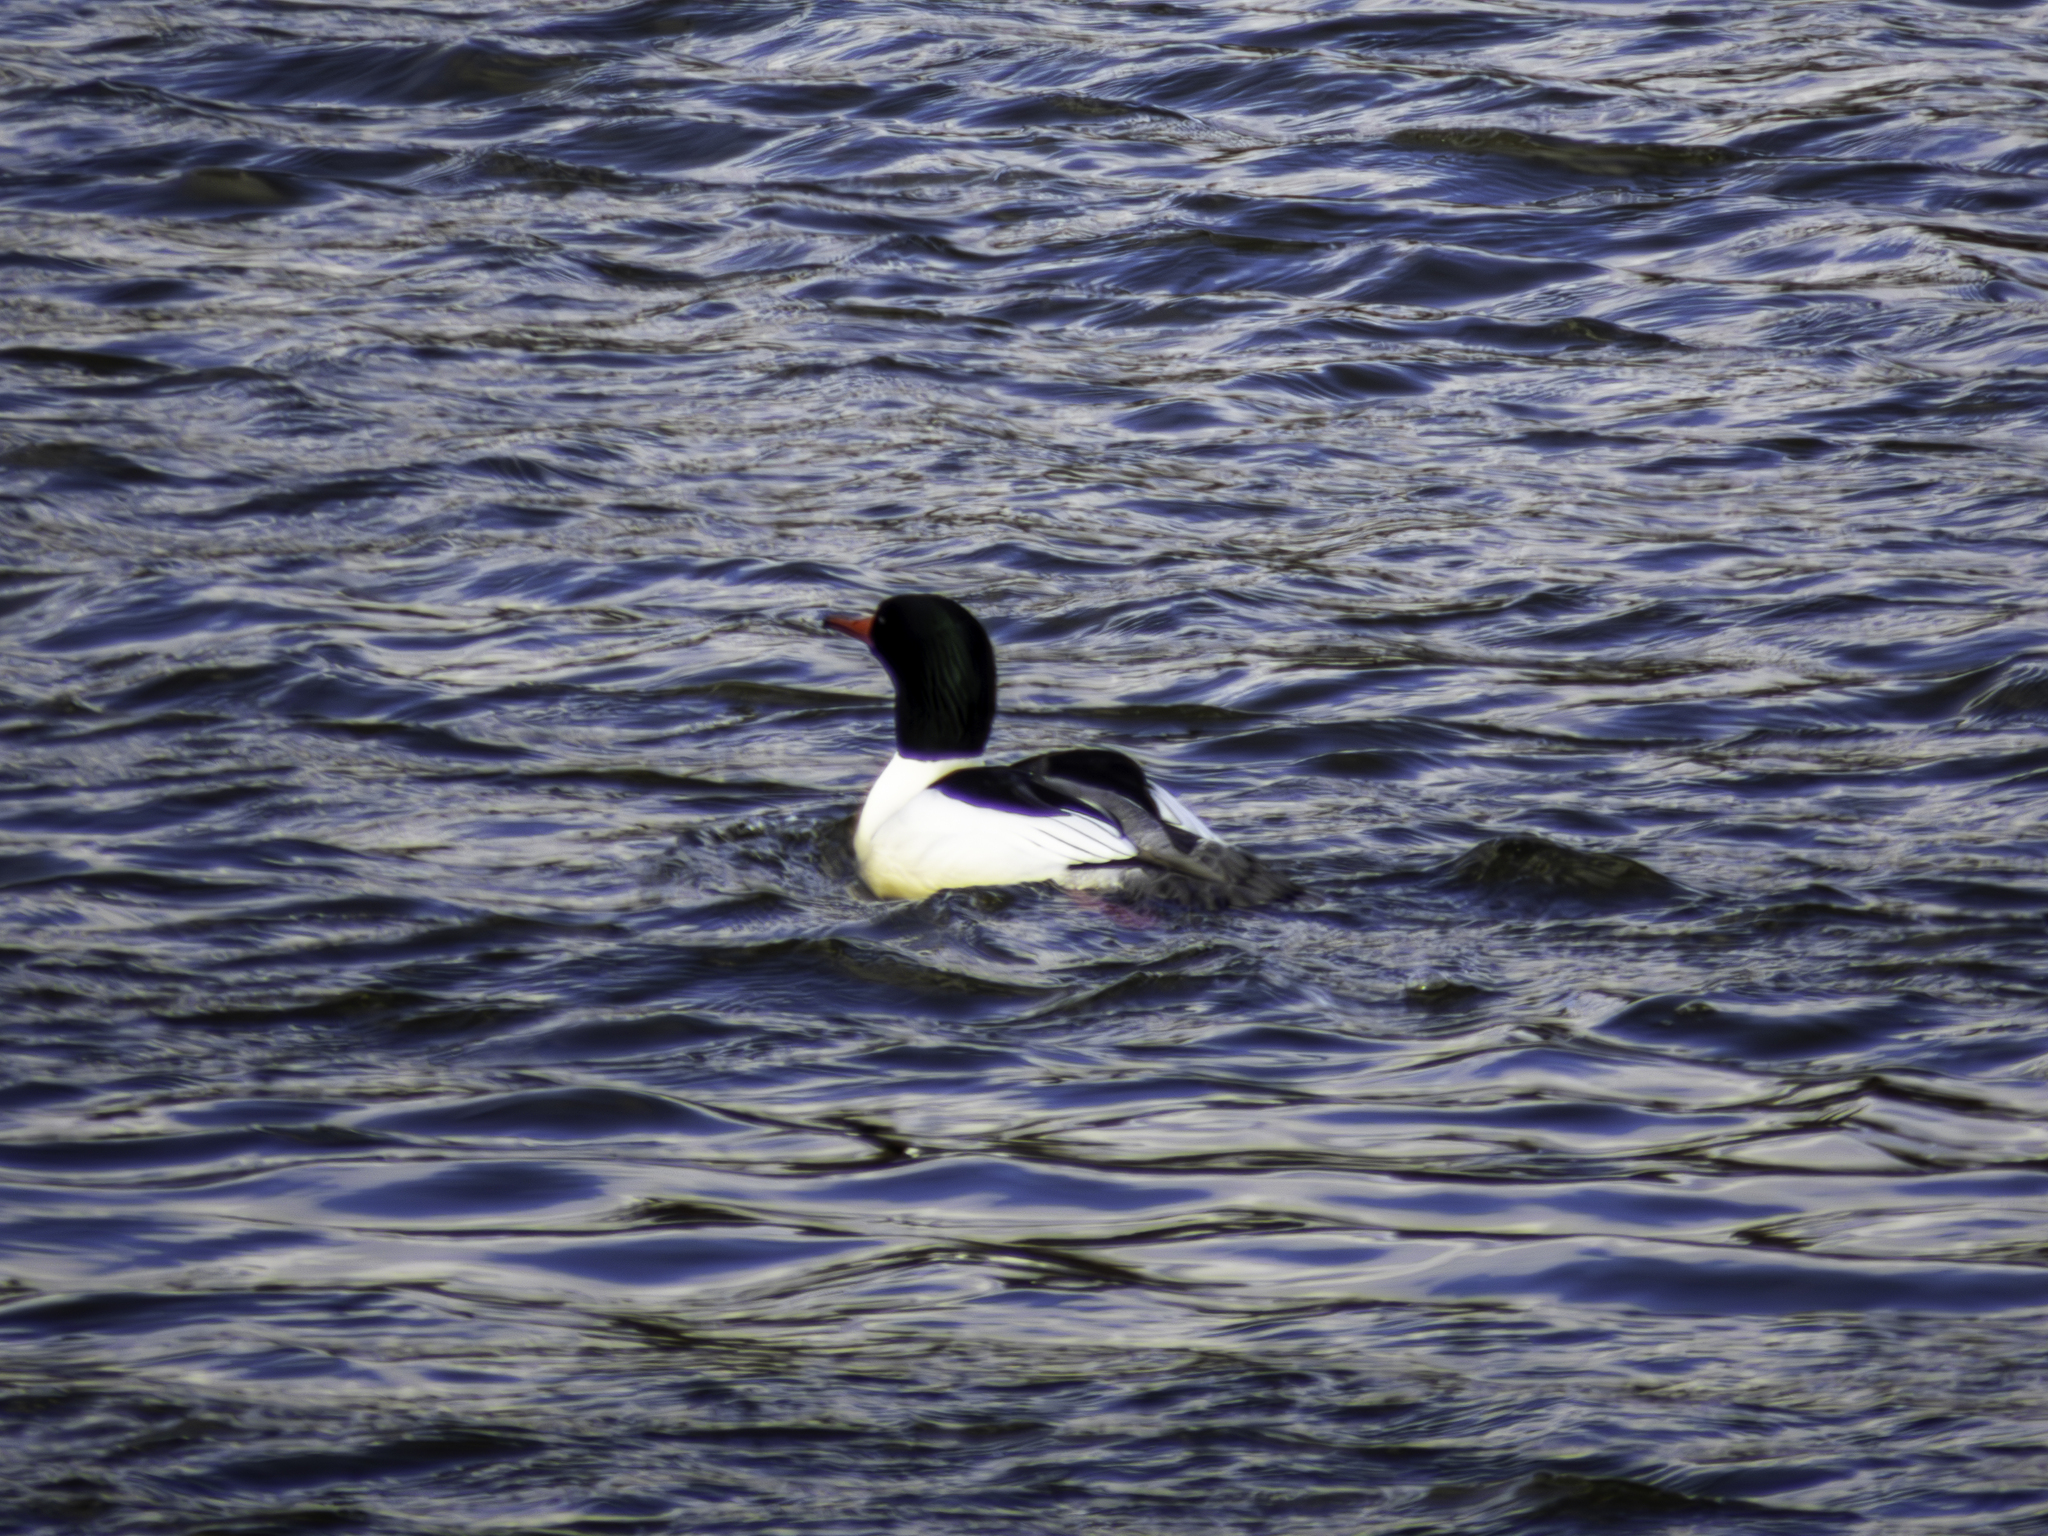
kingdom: Animalia
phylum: Chordata
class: Aves
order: Anseriformes
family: Anatidae
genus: Mergus
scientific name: Mergus merganser
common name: Common merganser
